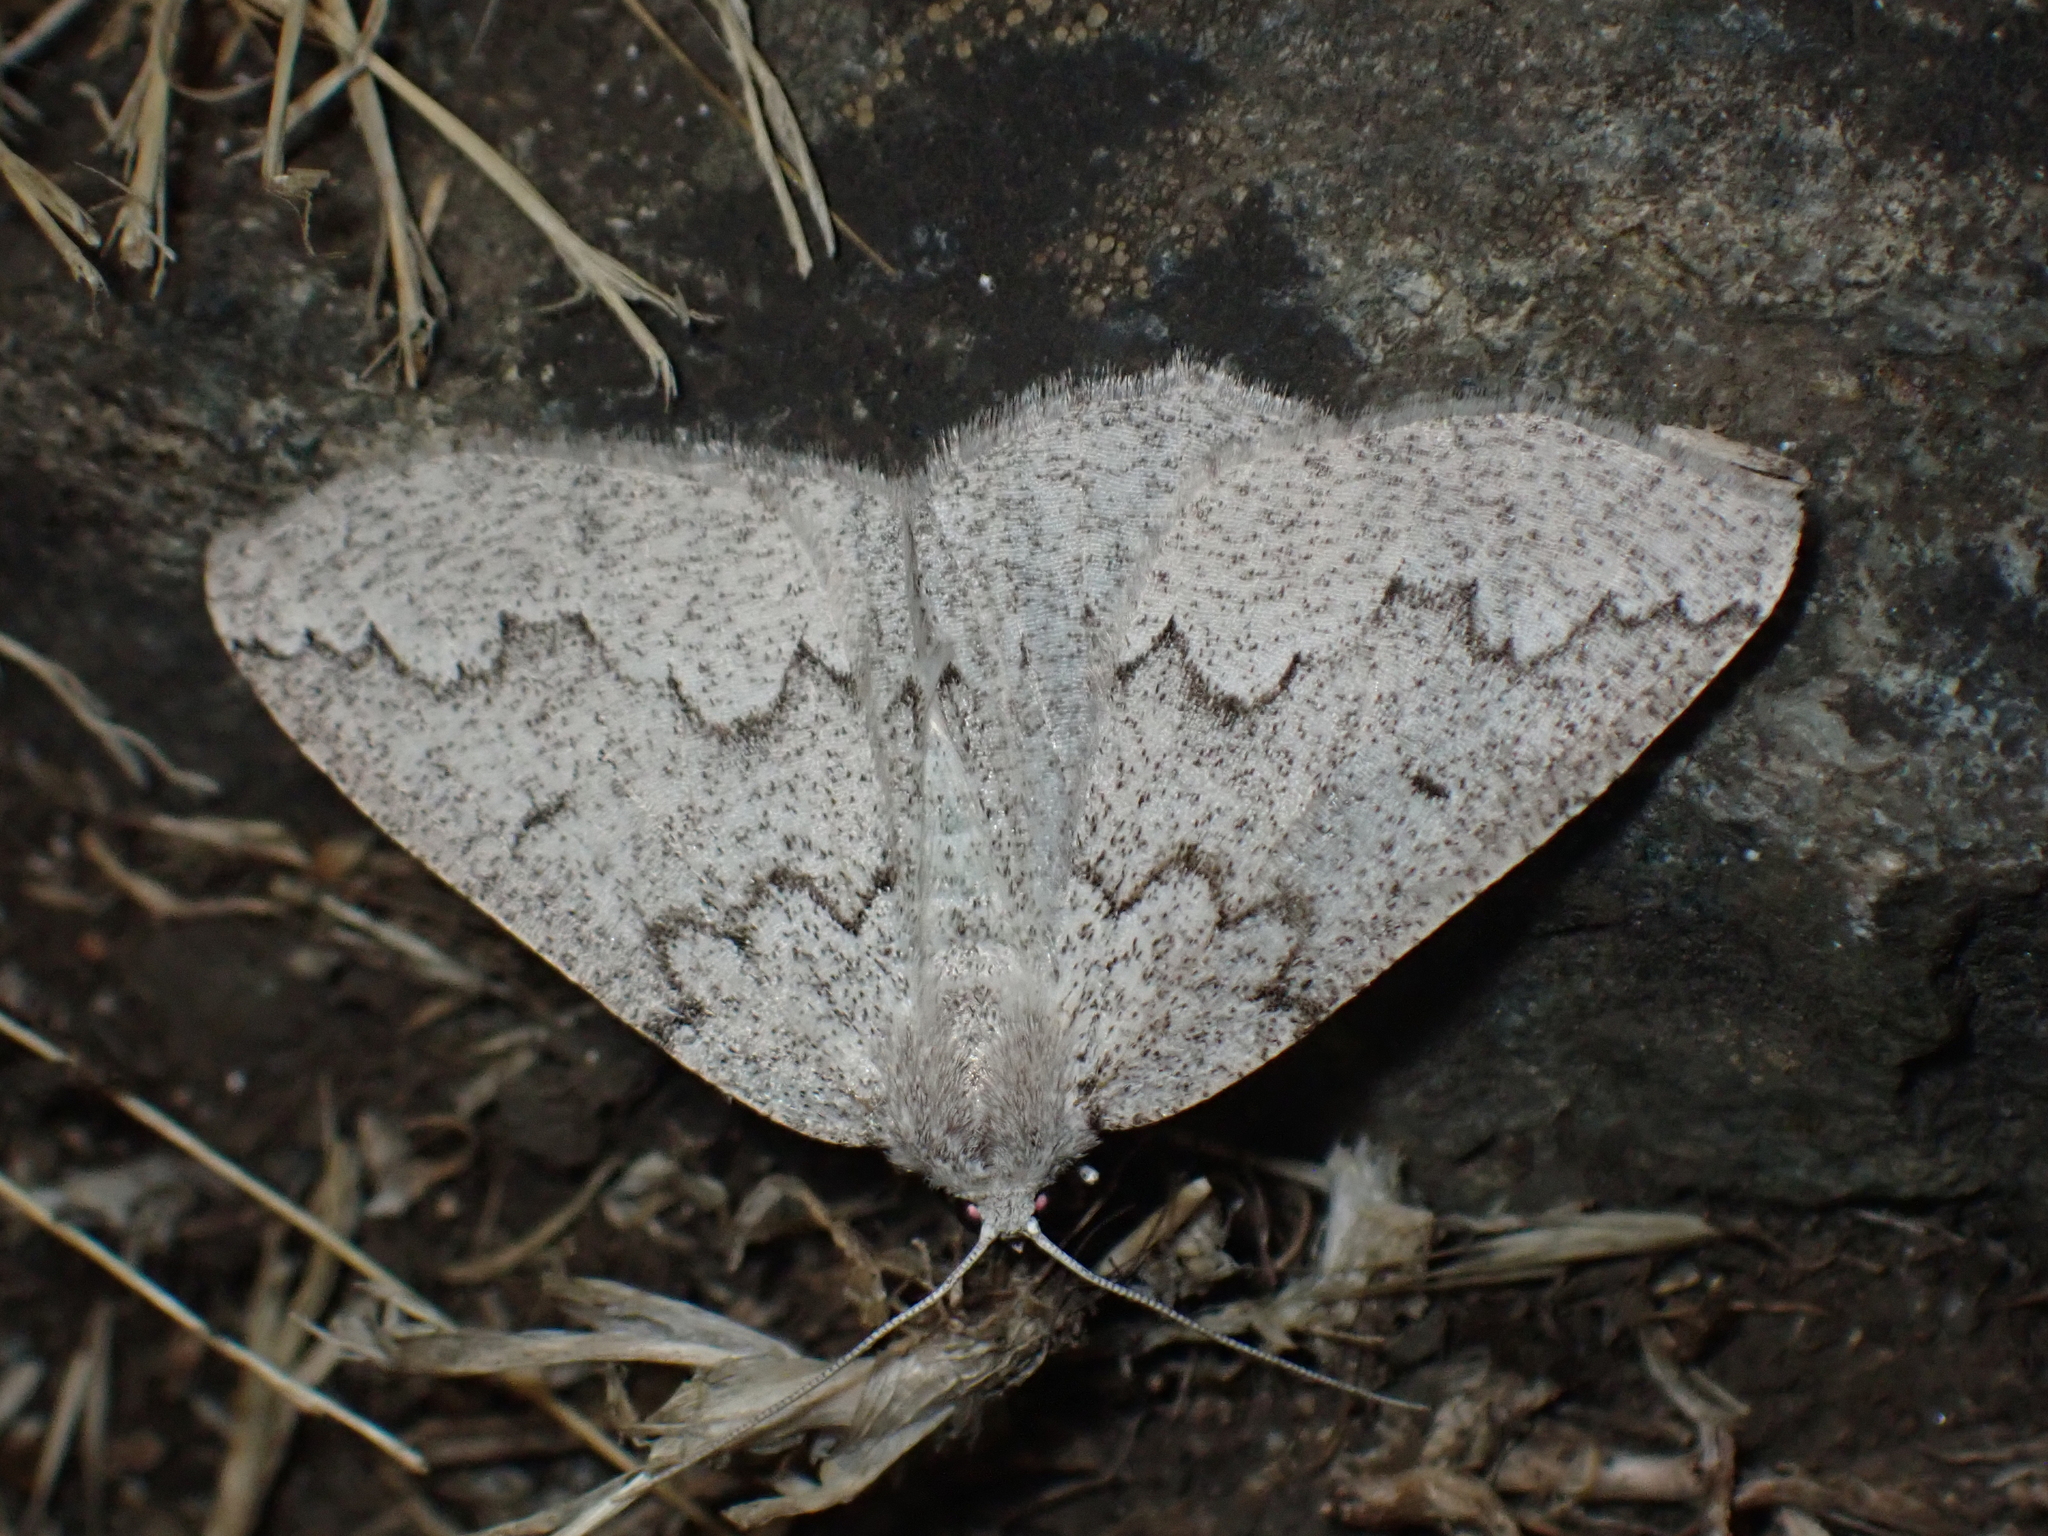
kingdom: Animalia
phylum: Arthropoda
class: Insecta
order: Lepidoptera
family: Geometridae
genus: Sabulodes
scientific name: Sabulodes
